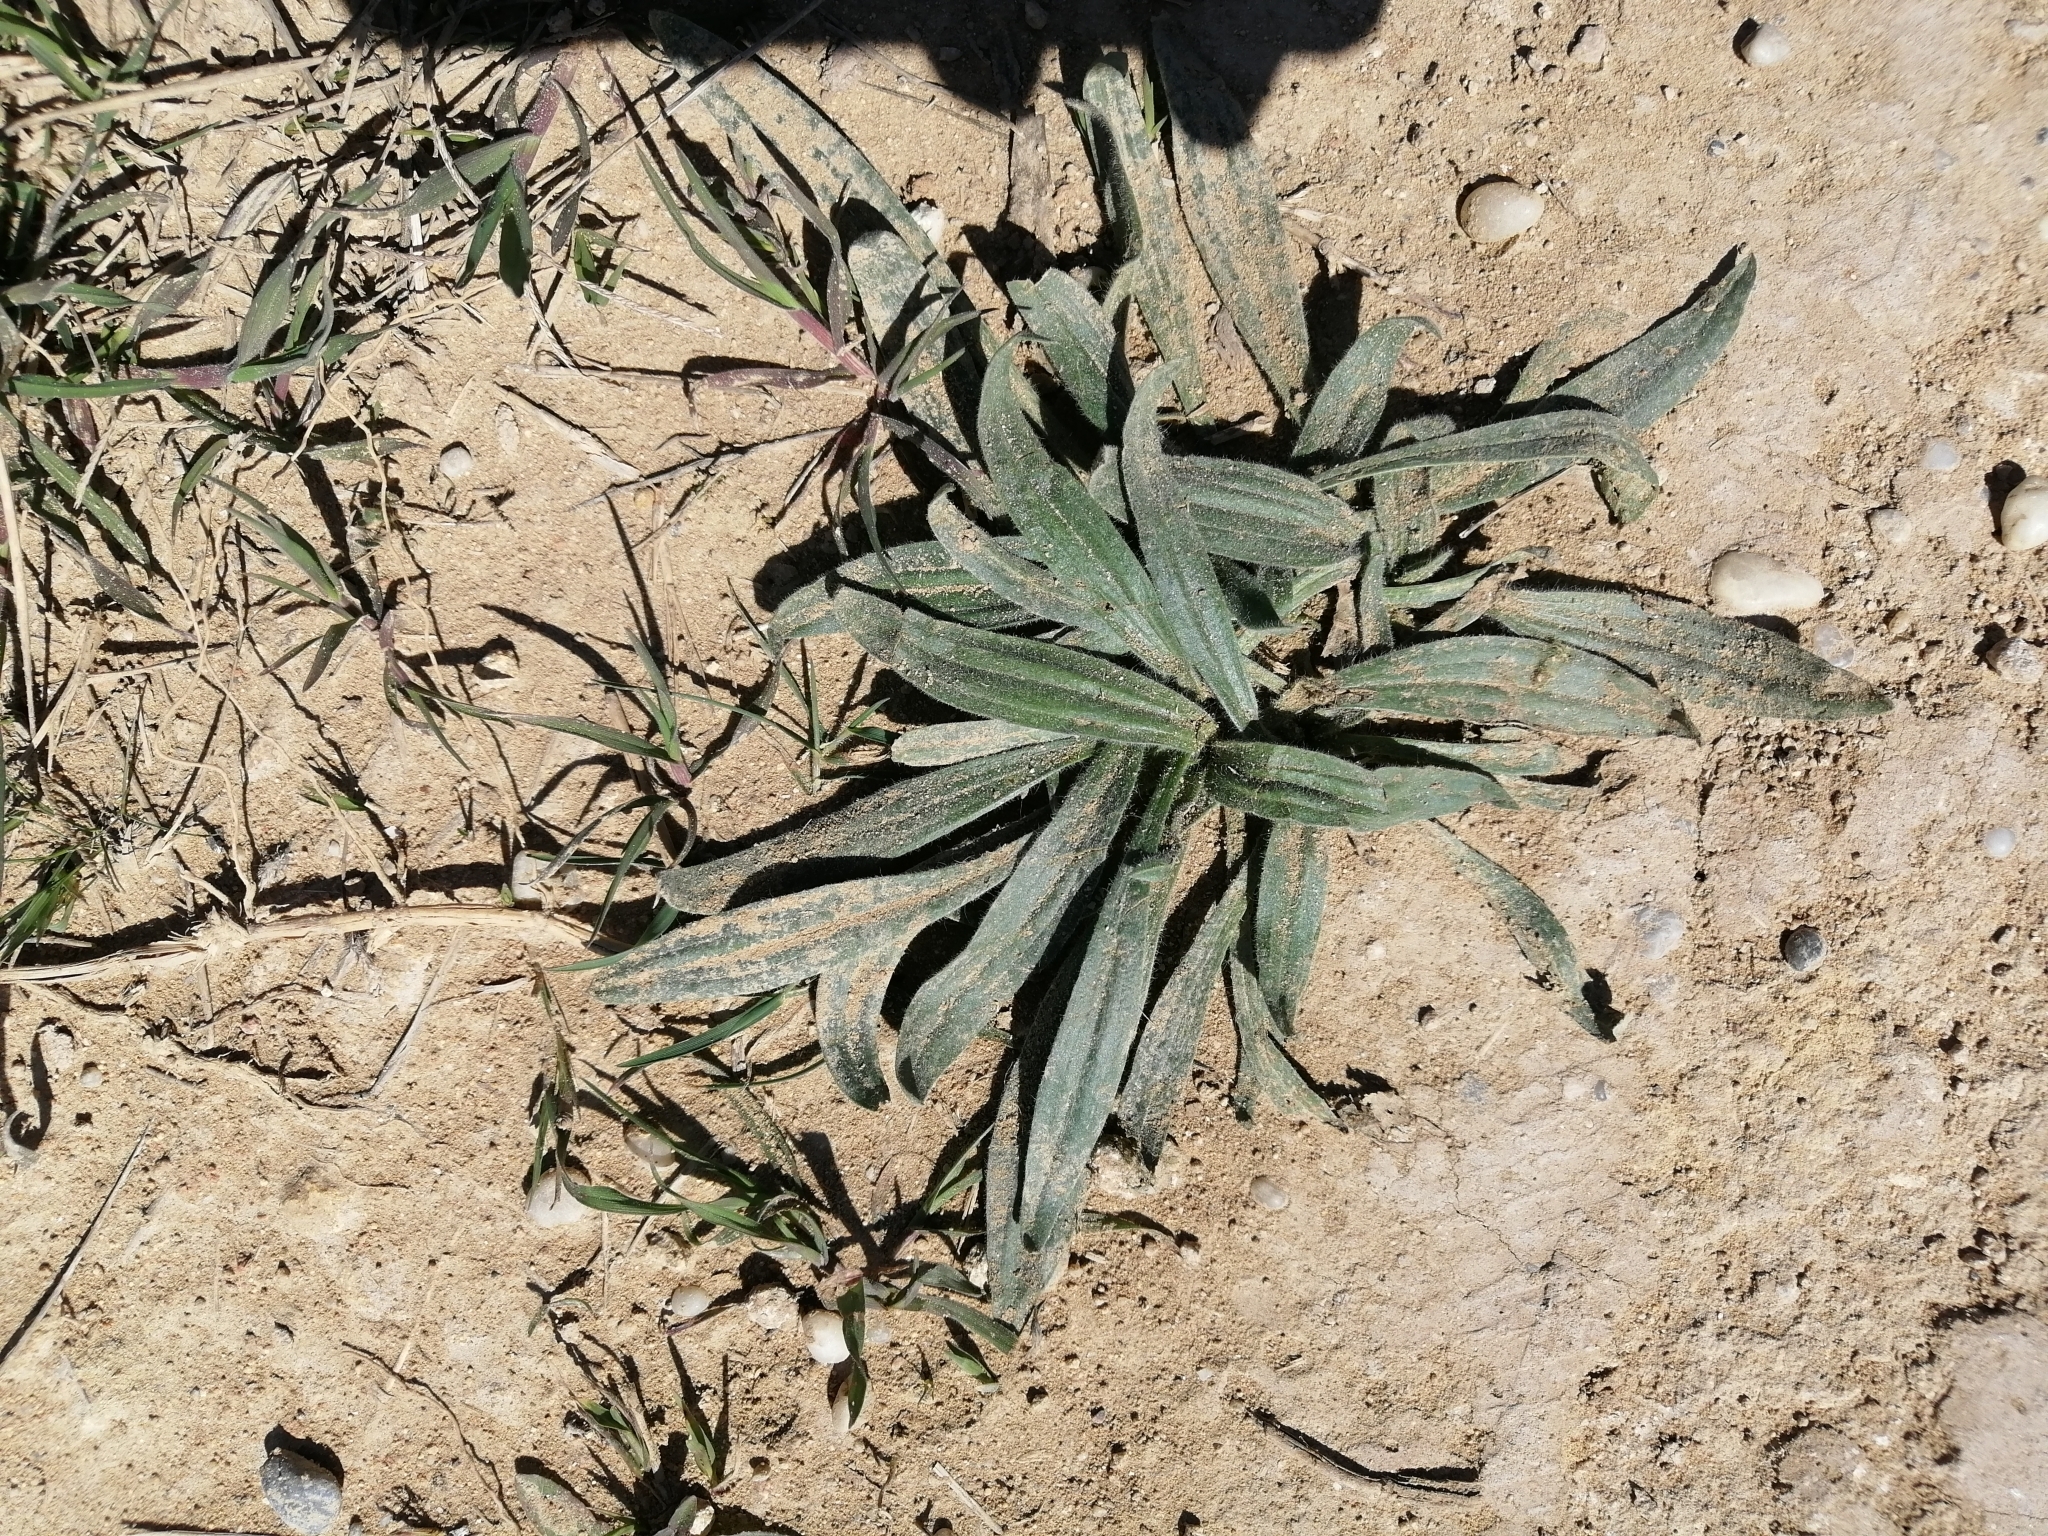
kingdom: Plantae
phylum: Tracheophyta
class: Magnoliopsida
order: Lamiales
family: Plantaginaceae
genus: Plantago
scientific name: Plantago lanceolata
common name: Ribwort plantain
